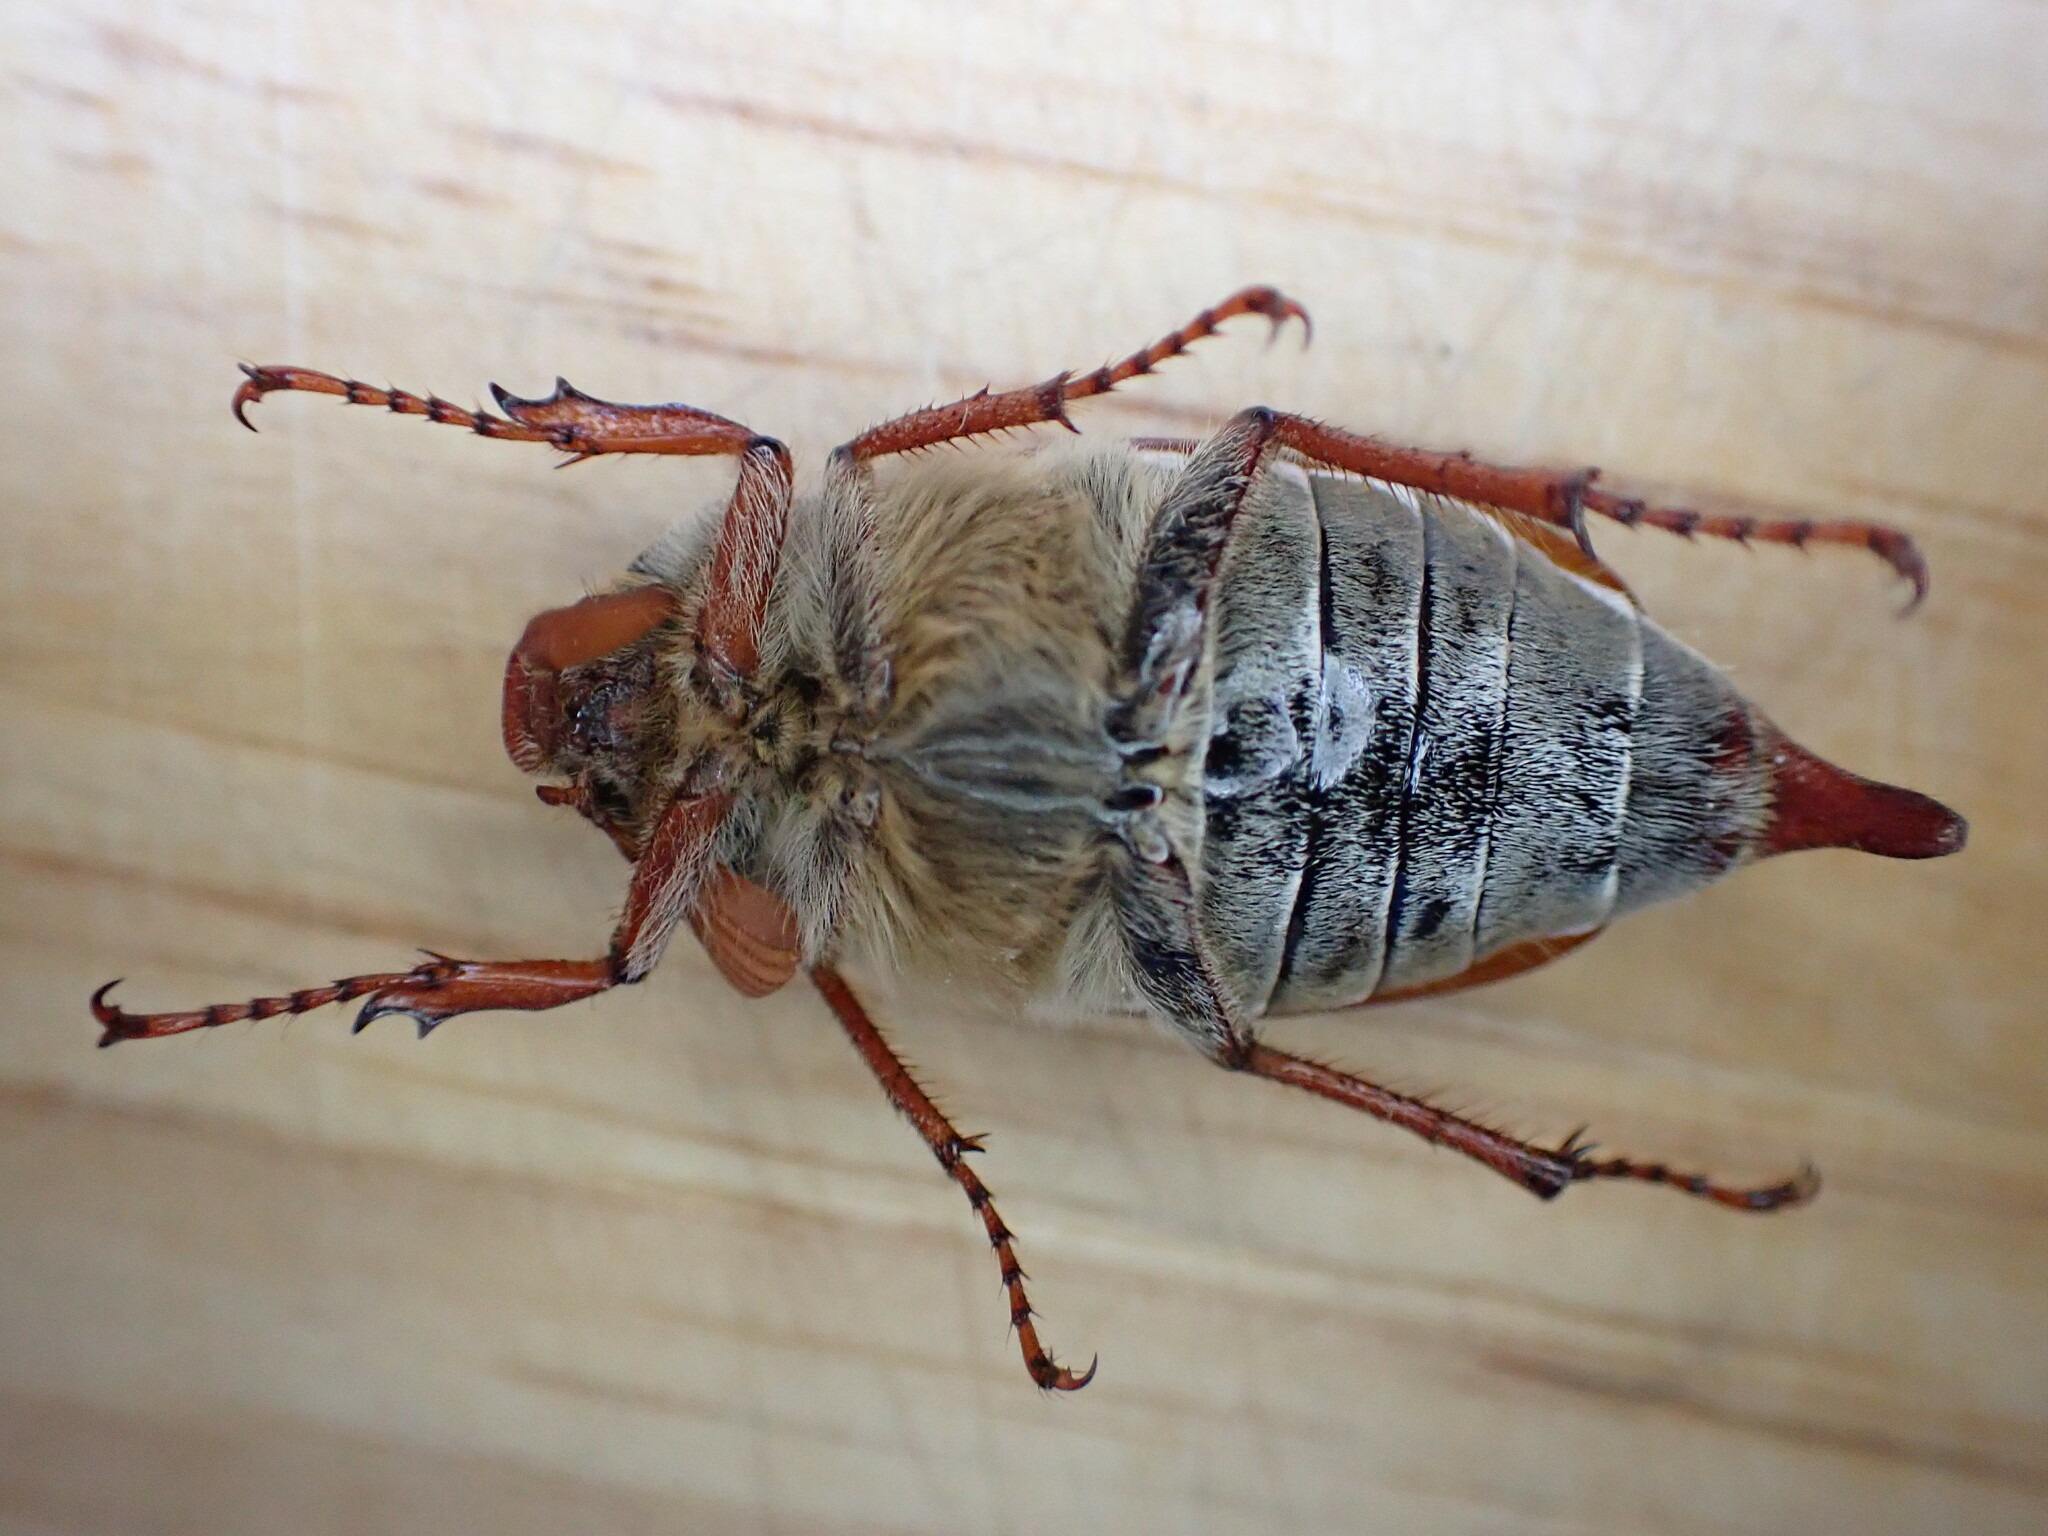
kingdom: Animalia
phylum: Arthropoda
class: Insecta
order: Coleoptera
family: Scarabaeidae
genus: Melolontha
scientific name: Melolontha melolontha
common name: Cockchafer maybeetle
